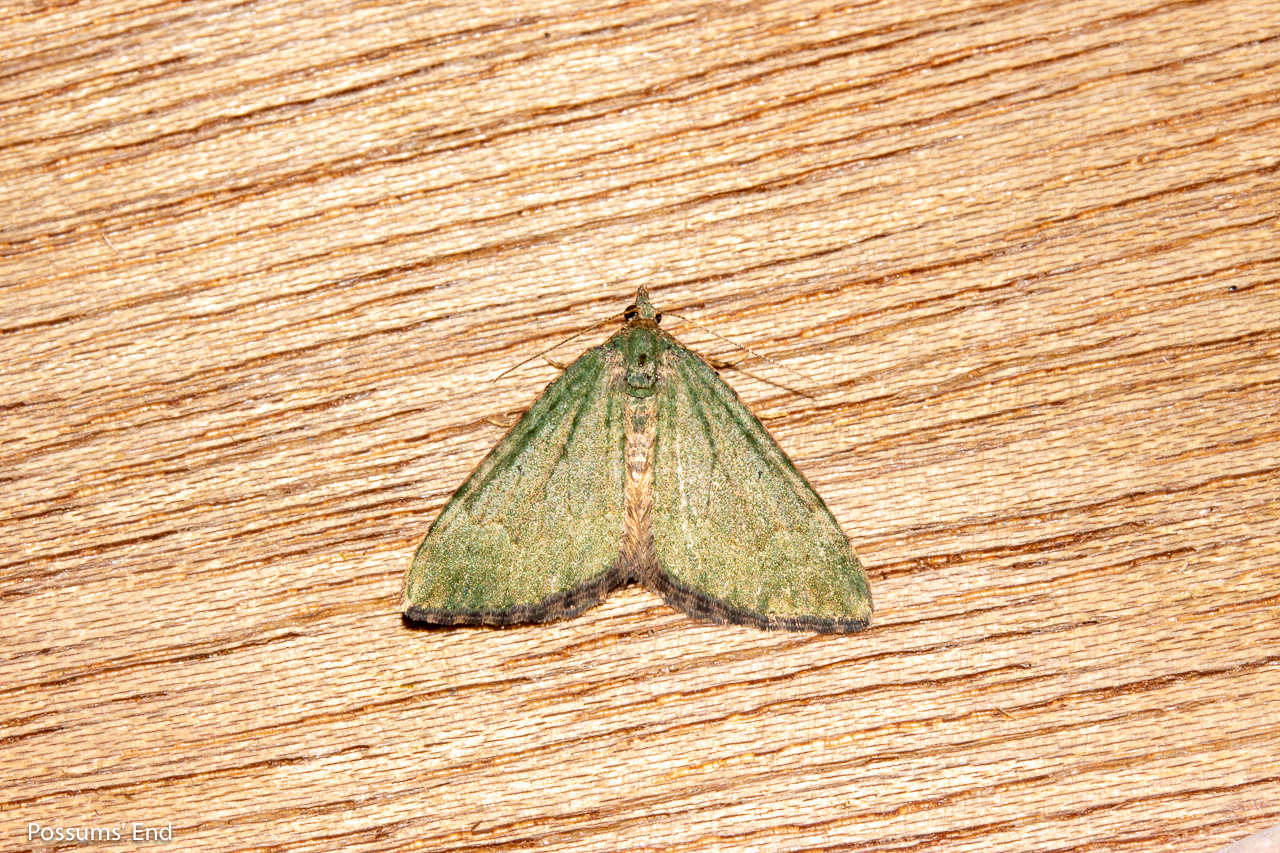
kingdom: Animalia
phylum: Arthropoda
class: Insecta
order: Lepidoptera
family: Geometridae
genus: Epyaxa
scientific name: Epyaxa rosearia
